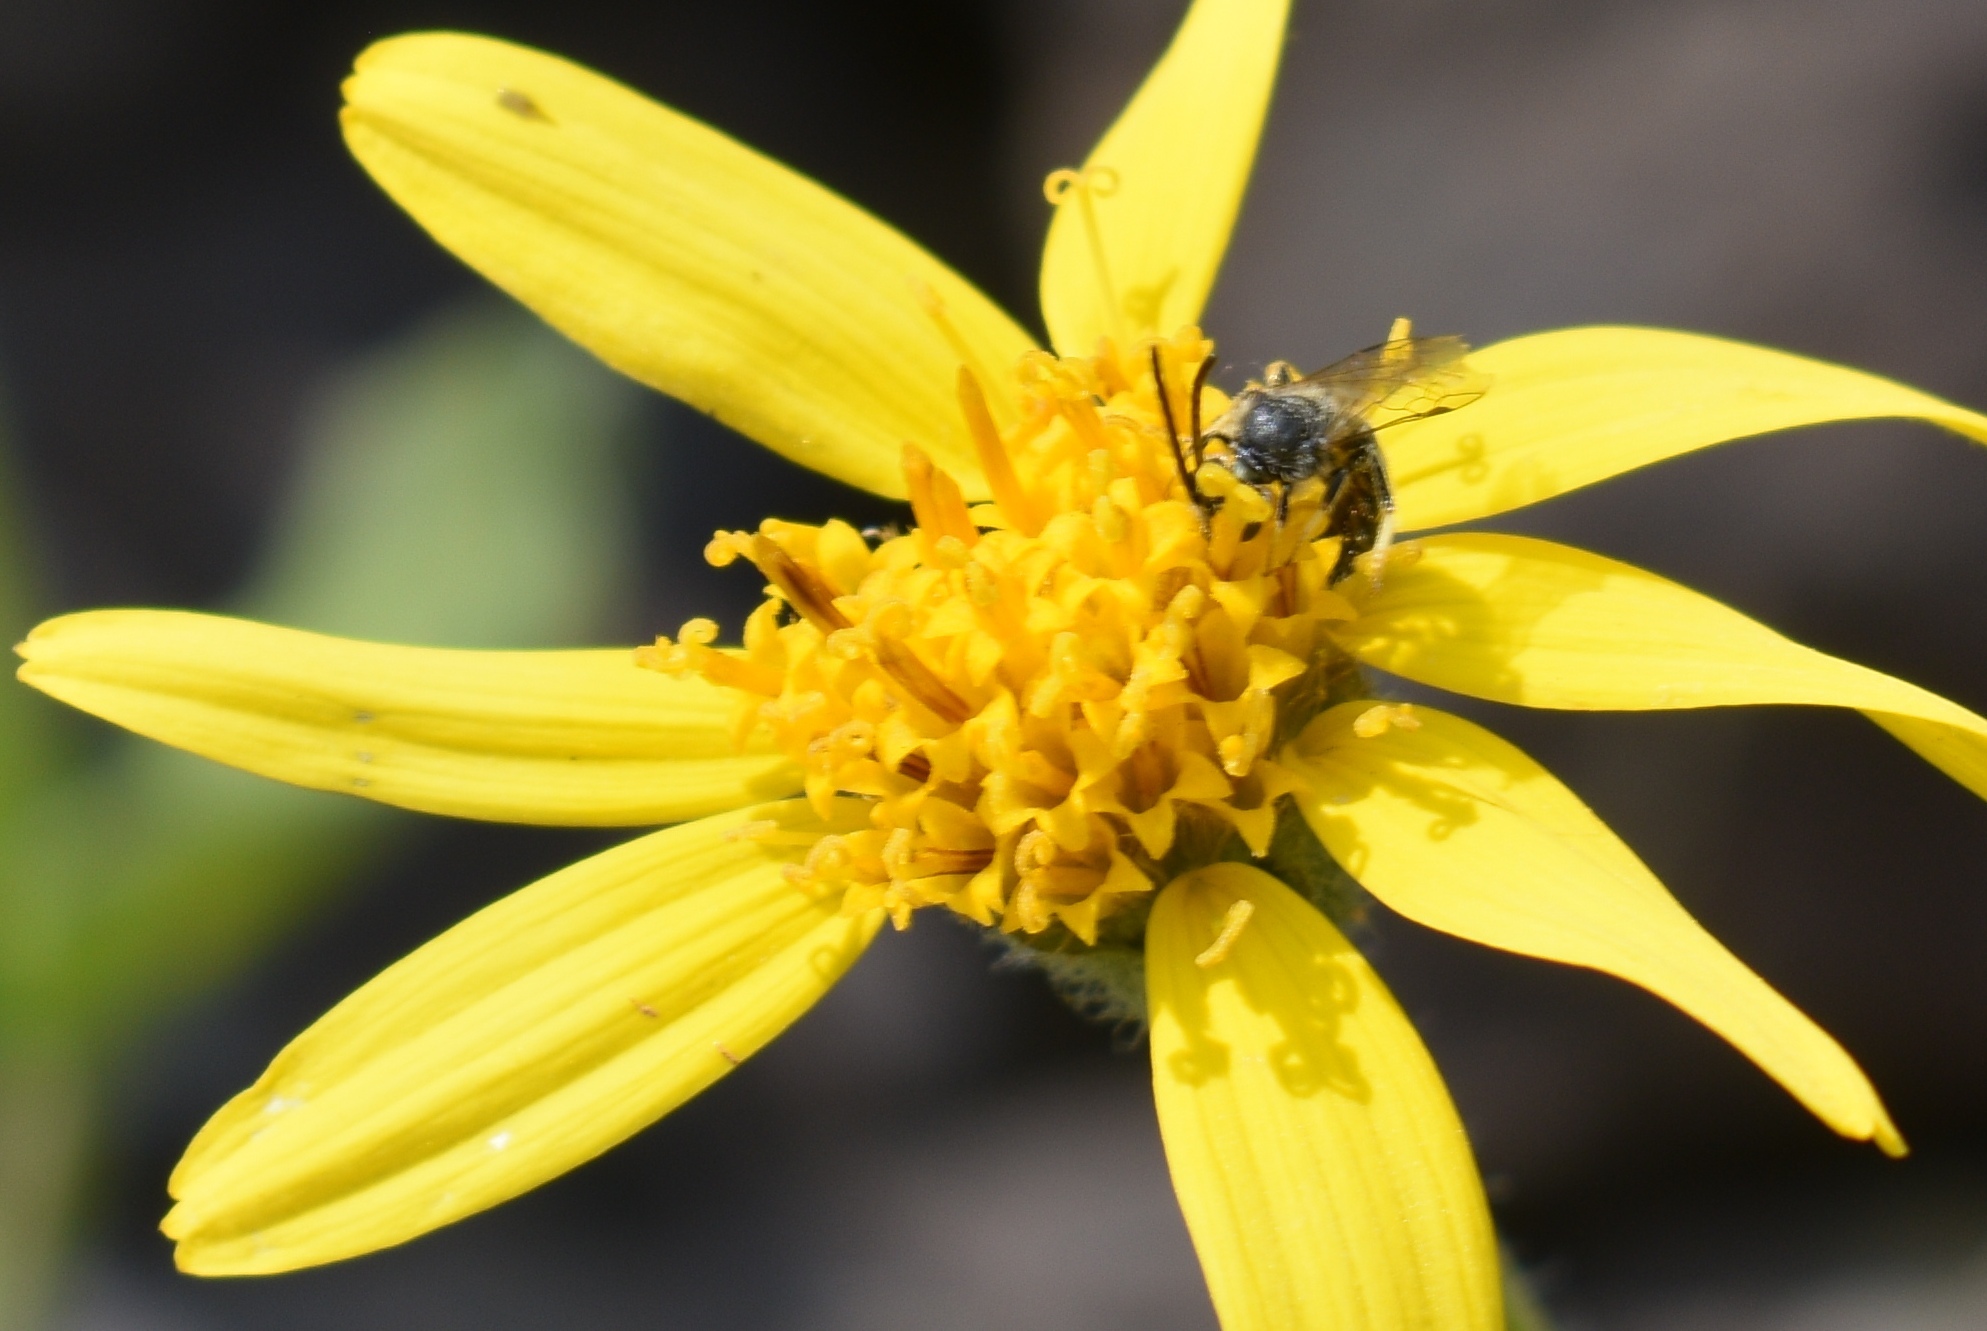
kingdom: Animalia
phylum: Arthropoda
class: Insecta
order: Hymenoptera
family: Halictidae
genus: Lasioglossum
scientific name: Lasioglossum
